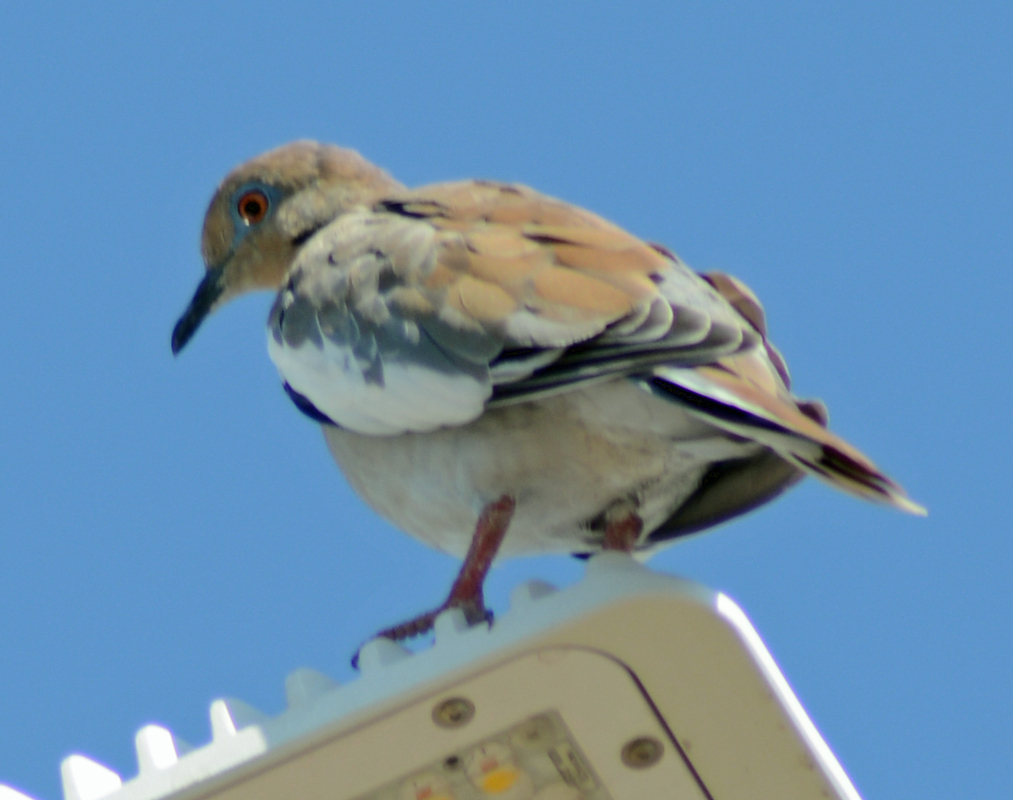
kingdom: Animalia
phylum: Chordata
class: Aves
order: Columbiformes
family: Columbidae
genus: Zenaida
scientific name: Zenaida asiatica
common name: White-winged dove
